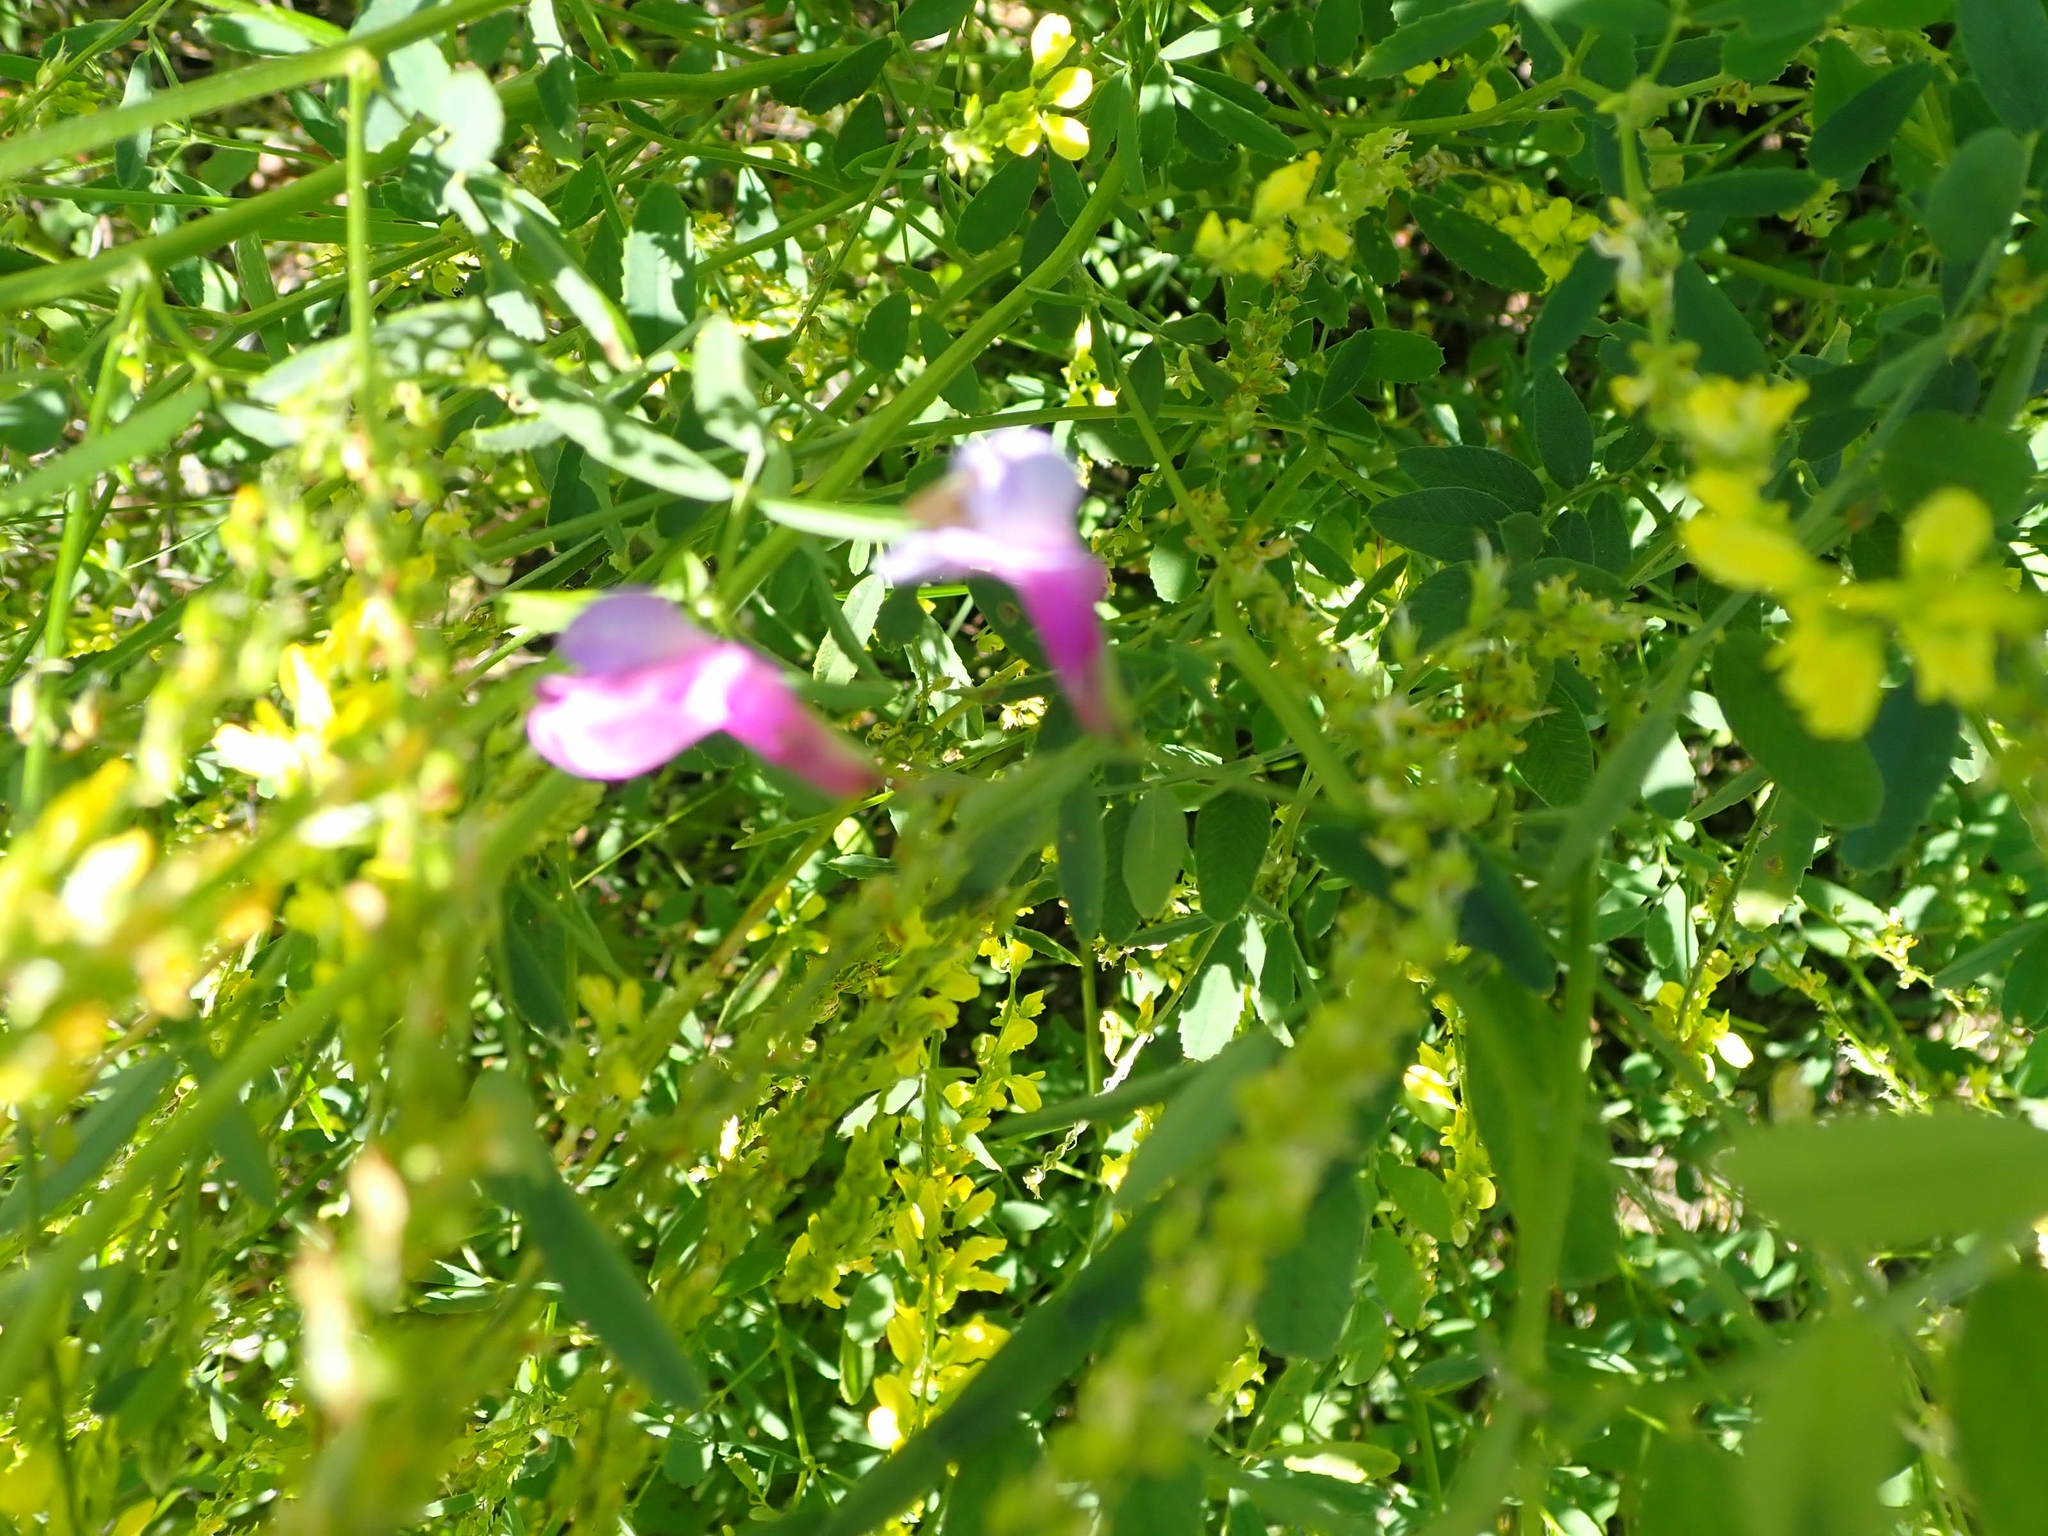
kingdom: Plantae
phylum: Tracheophyta
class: Magnoliopsida
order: Fabales
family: Fabaceae
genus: Vicia
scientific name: Vicia americana
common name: American vetch
